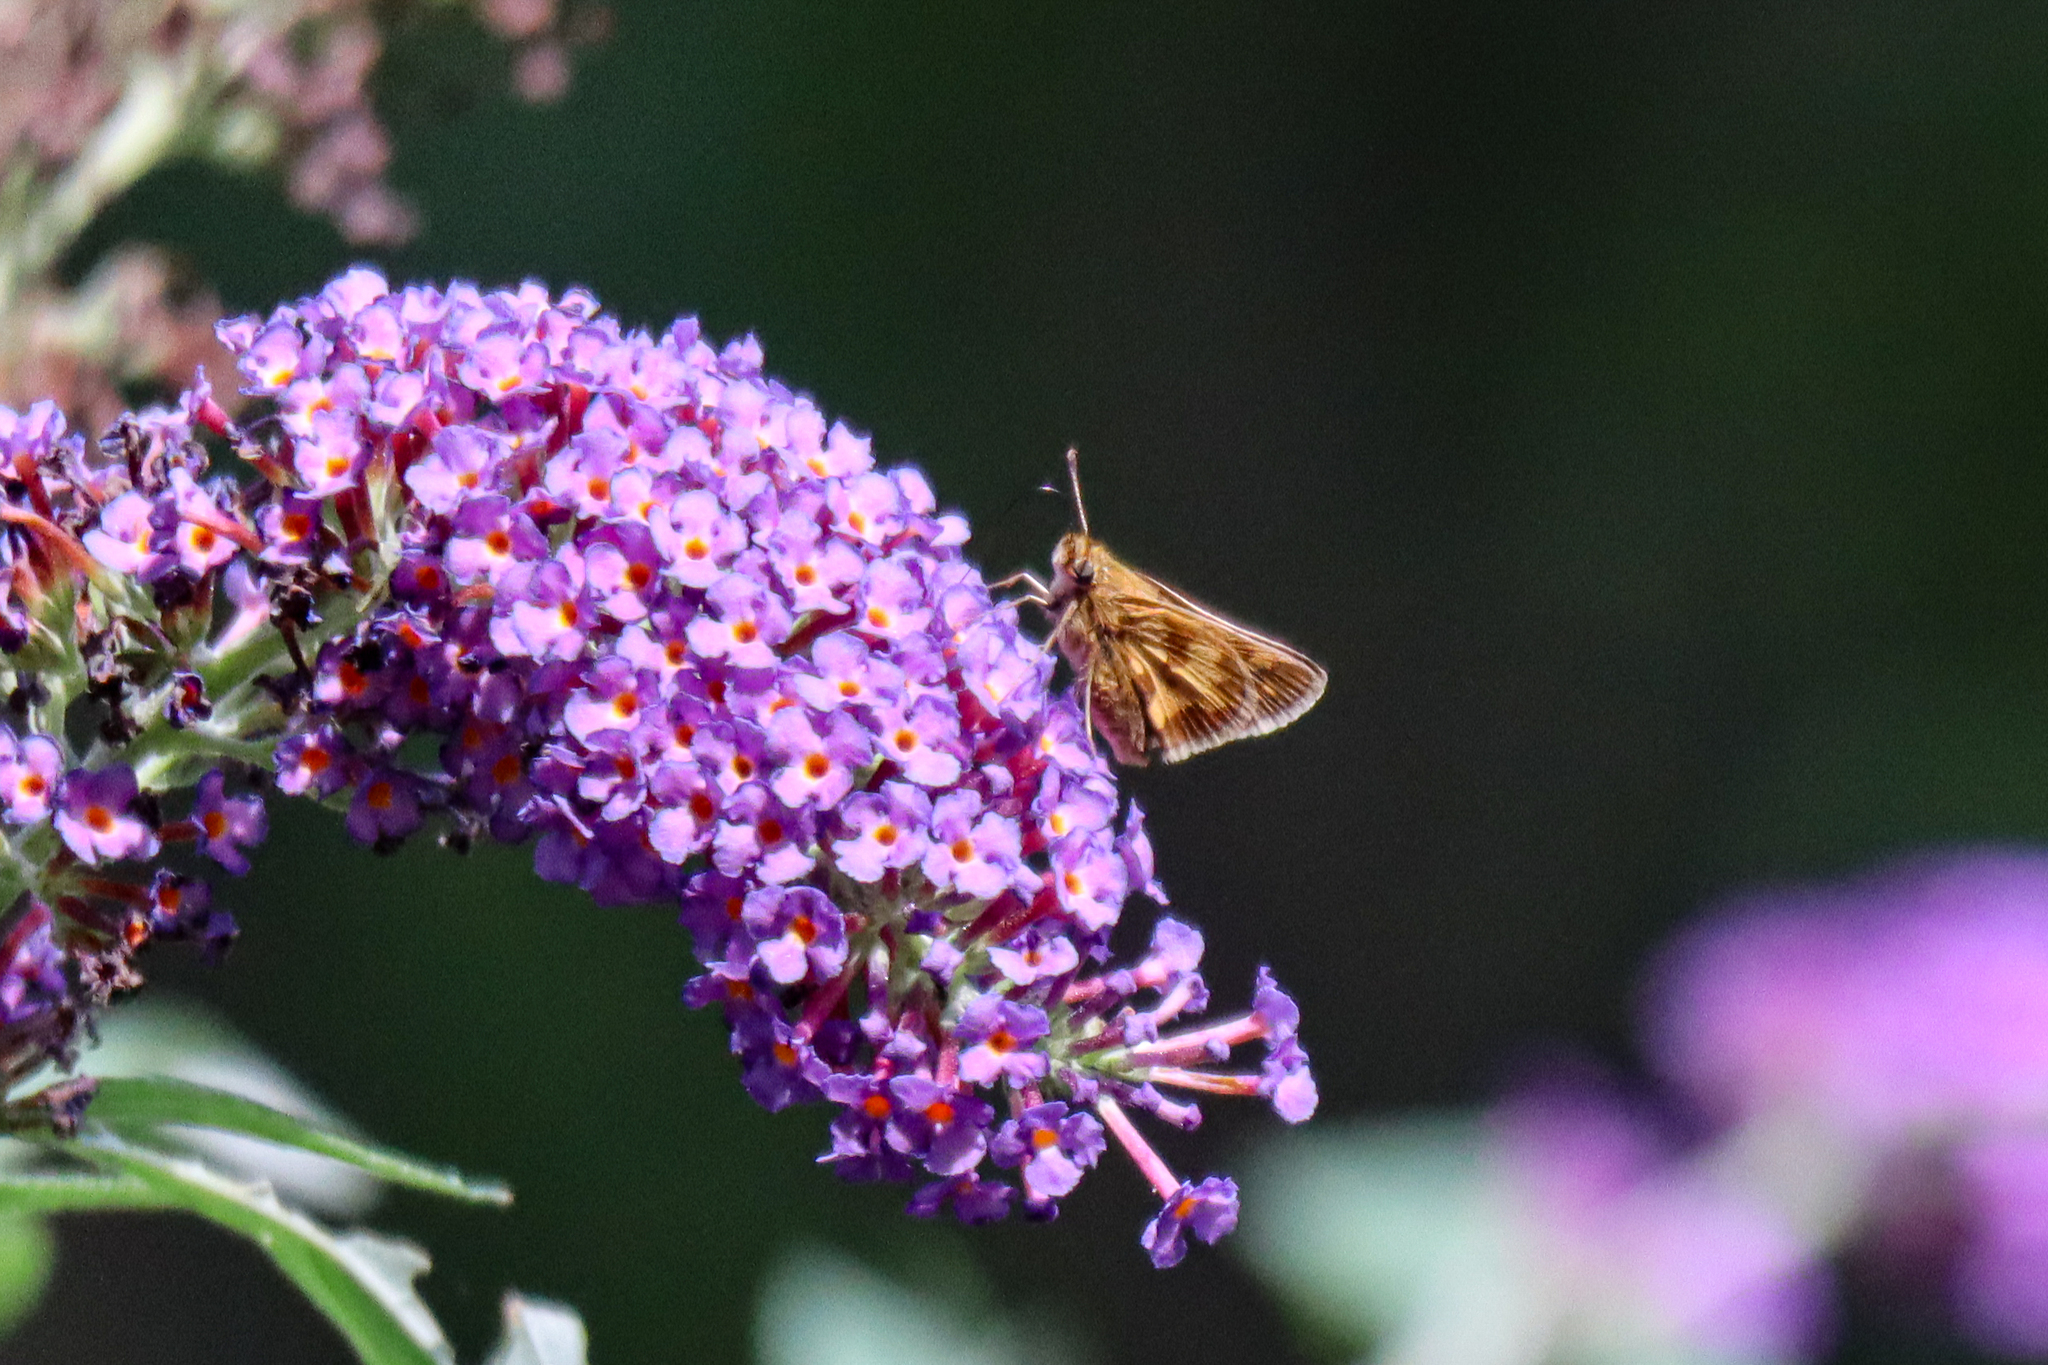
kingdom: Animalia
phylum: Arthropoda
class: Insecta
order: Lepidoptera
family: Hesperiidae
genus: Polites
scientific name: Polites coras
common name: Peck's skipper
